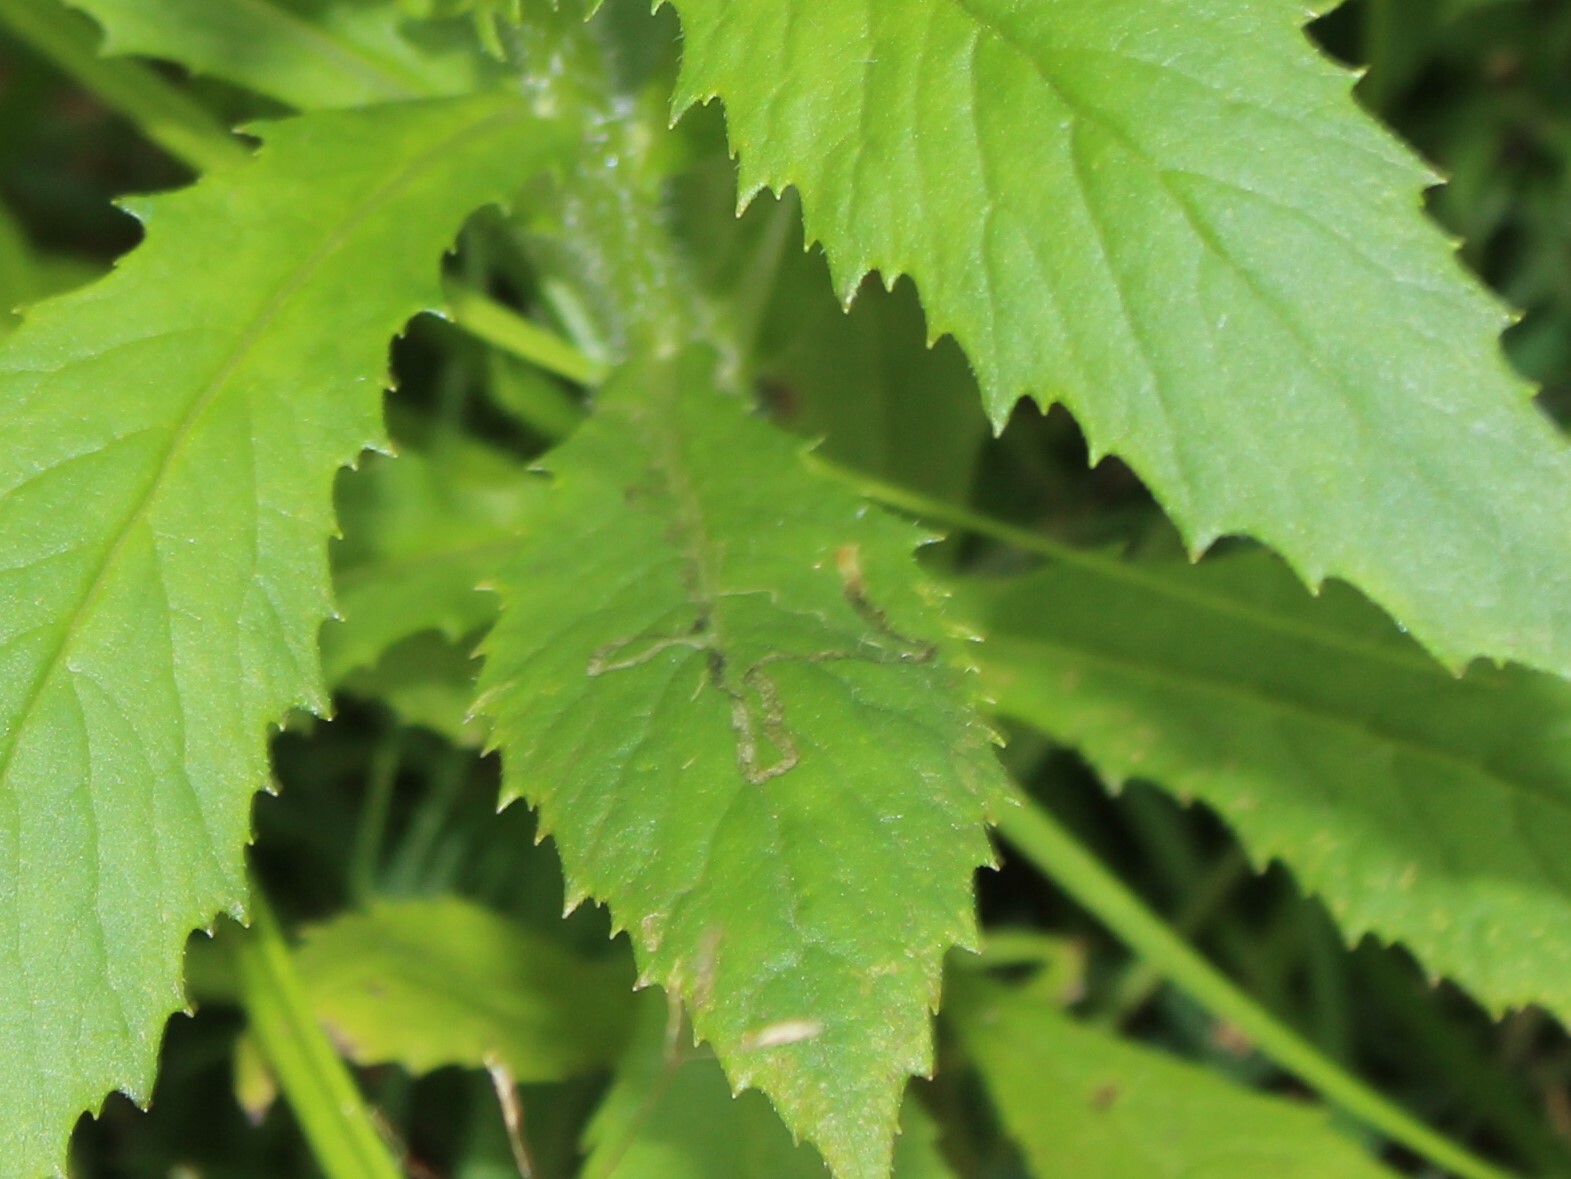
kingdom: Animalia
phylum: Arthropoda
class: Insecta
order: Lepidoptera
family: Gracillariidae
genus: Phyllocnistis
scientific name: Phyllocnistis insignis
